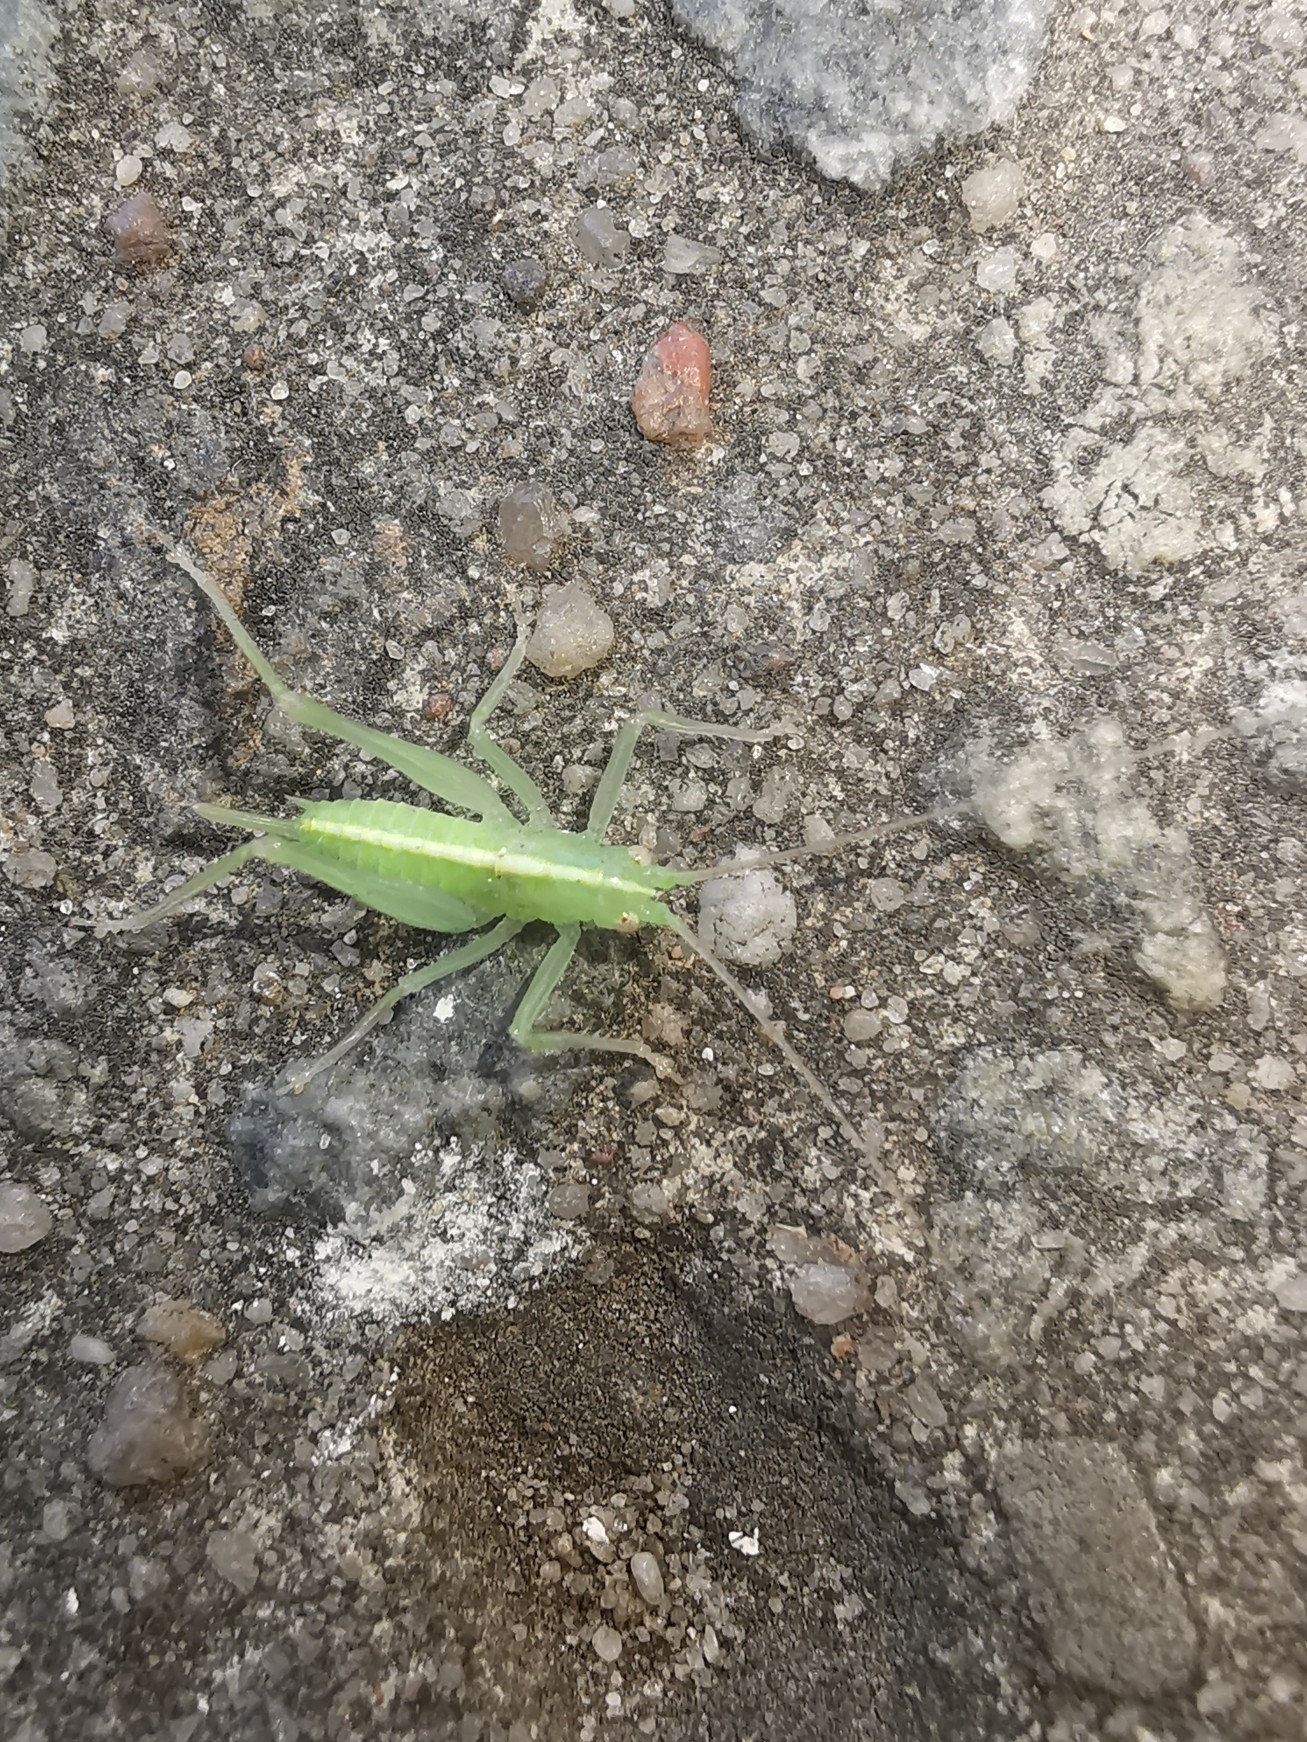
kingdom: Animalia
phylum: Arthropoda
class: Insecta
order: Orthoptera
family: Tettigoniidae
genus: Meconema
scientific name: Meconema meridionale
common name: Southern oak bush-cricket
